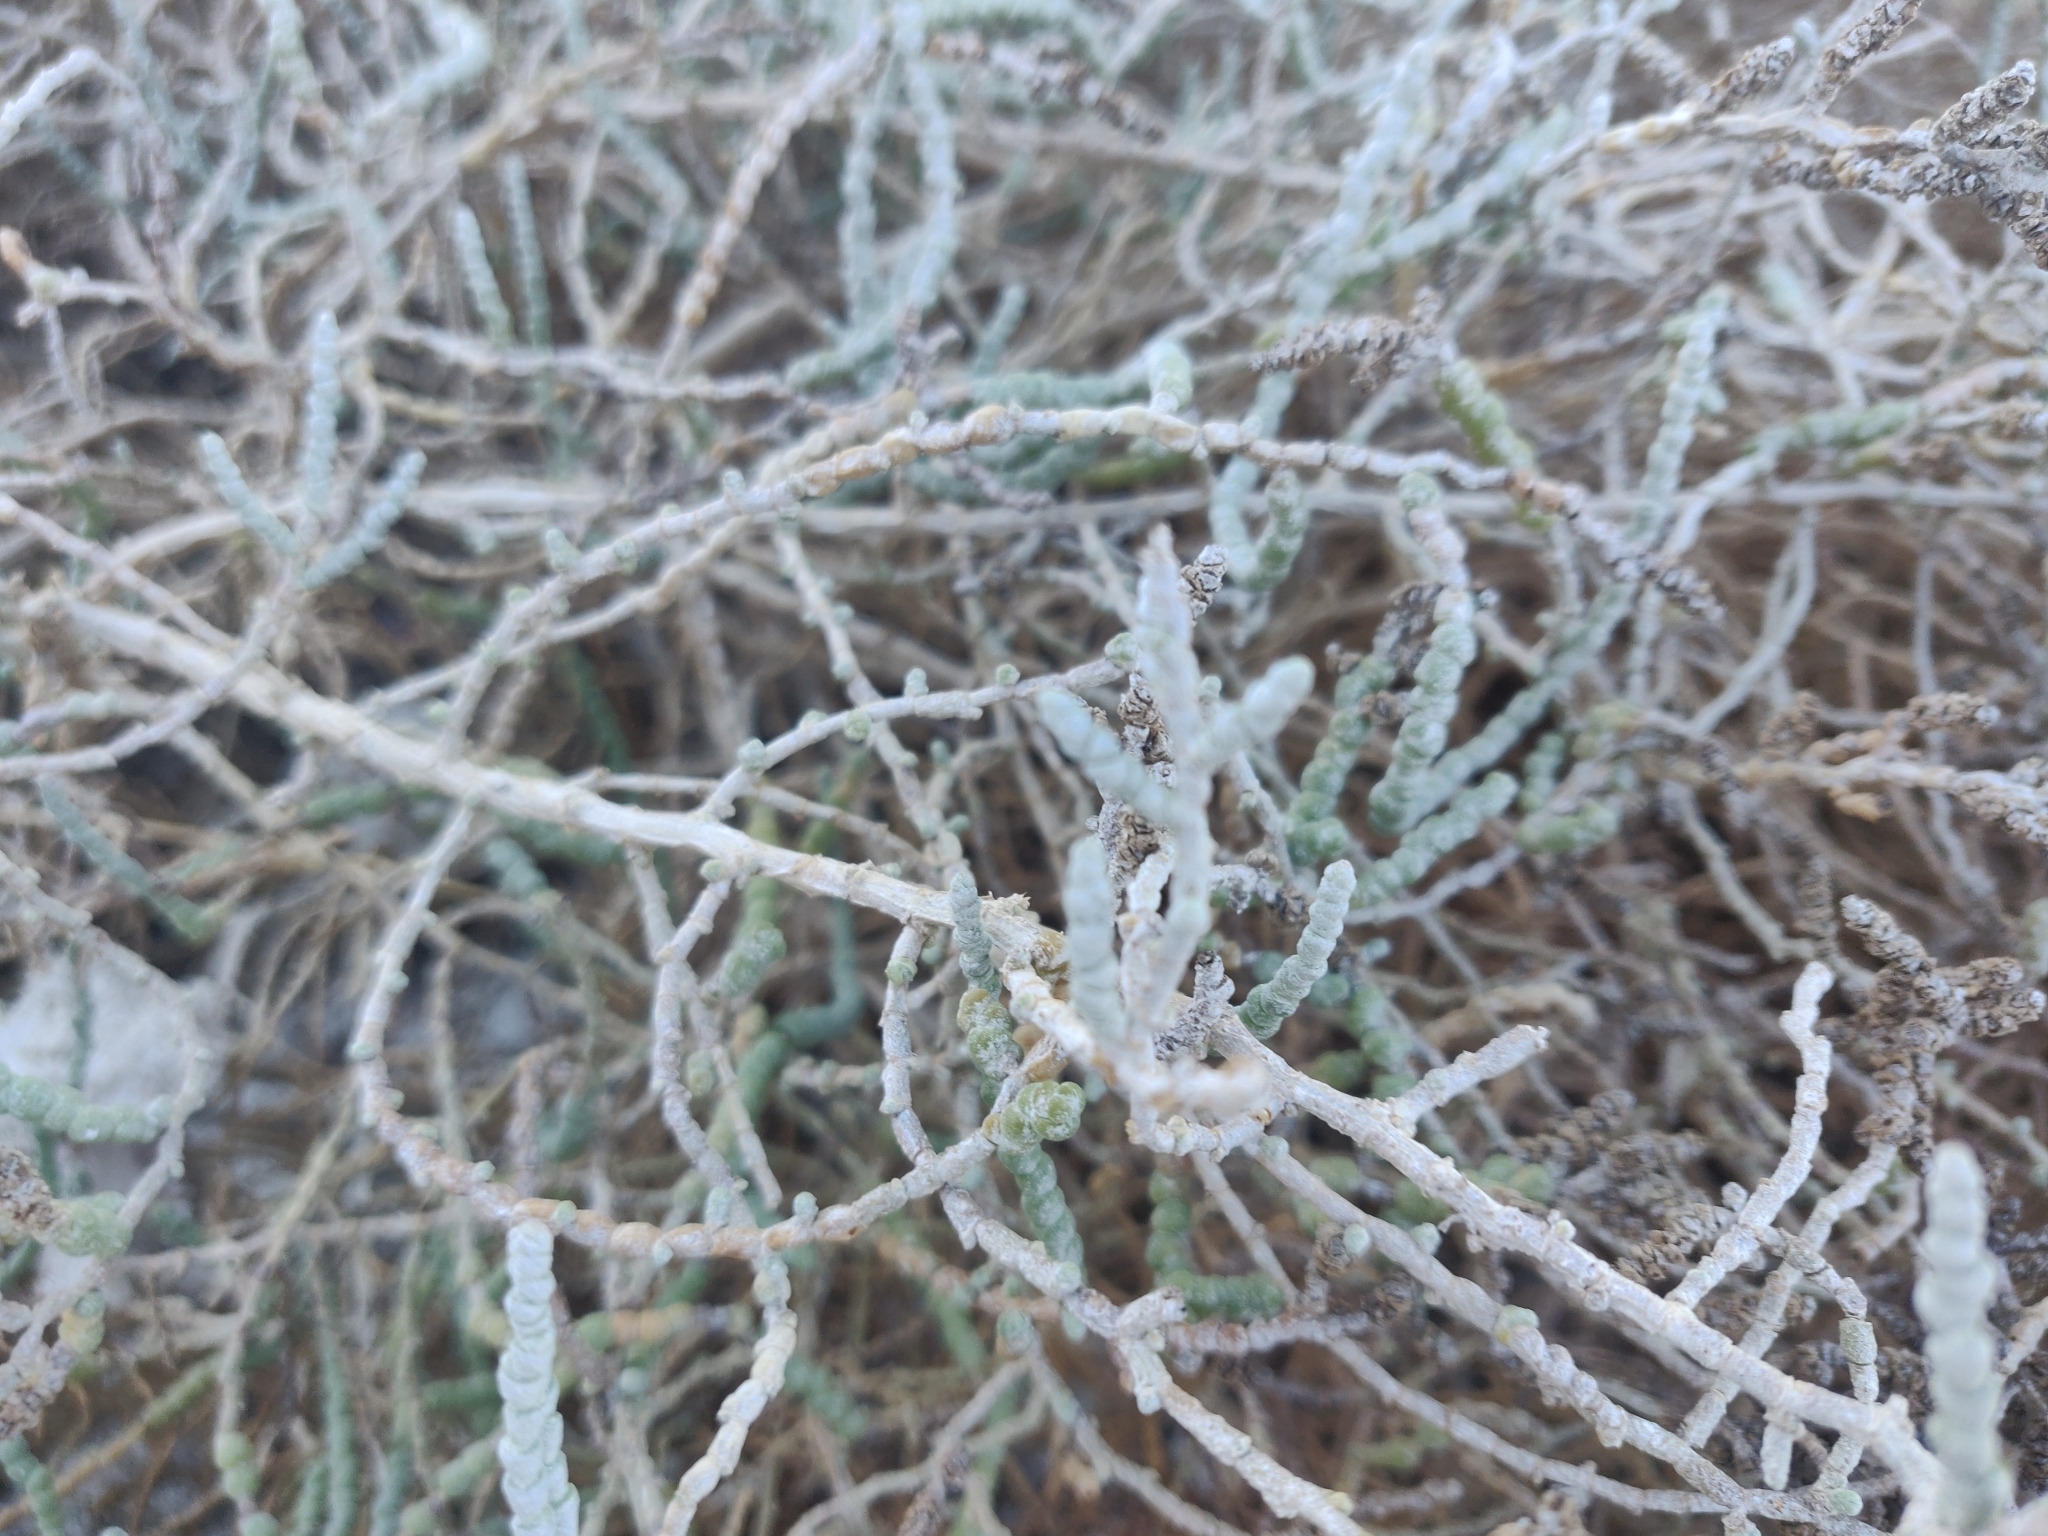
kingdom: Plantae
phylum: Tracheophyta
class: Magnoliopsida
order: Caryophyllales
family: Amaranthaceae
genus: Allenrolfea
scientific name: Allenrolfea occidentalis
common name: Iodine-bush
